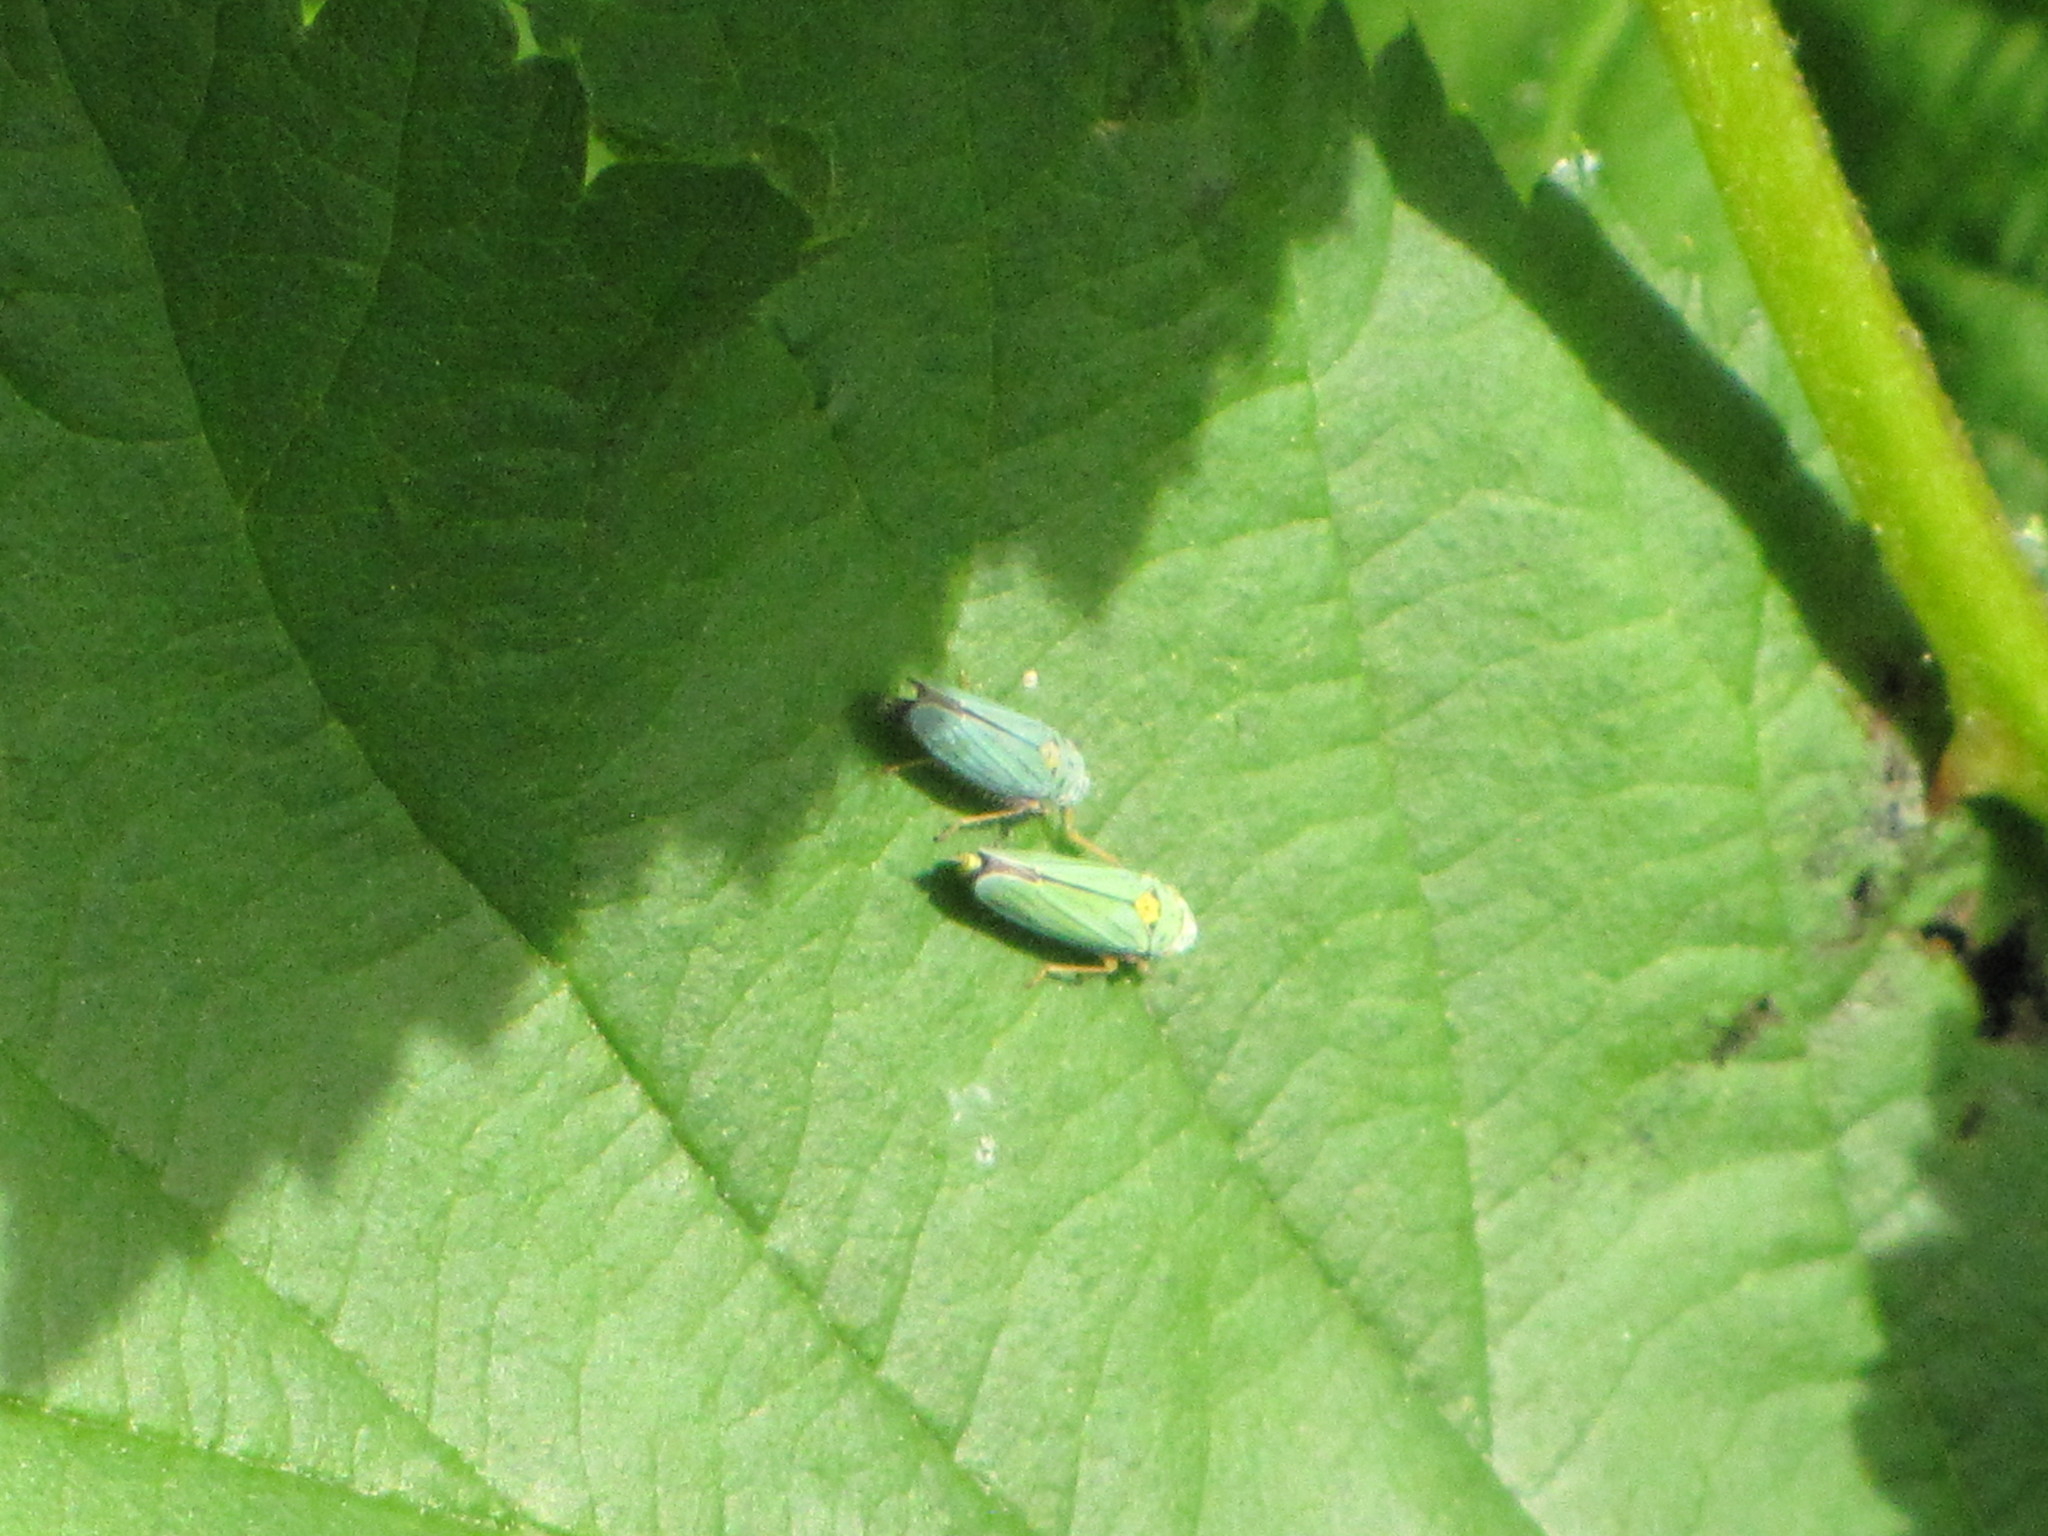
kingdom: Animalia
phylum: Arthropoda
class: Insecta
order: Hemiptera
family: Cicadellidae
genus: Graphocephala
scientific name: Graphocephala atropunctata
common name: Blue-green sharpshooter
